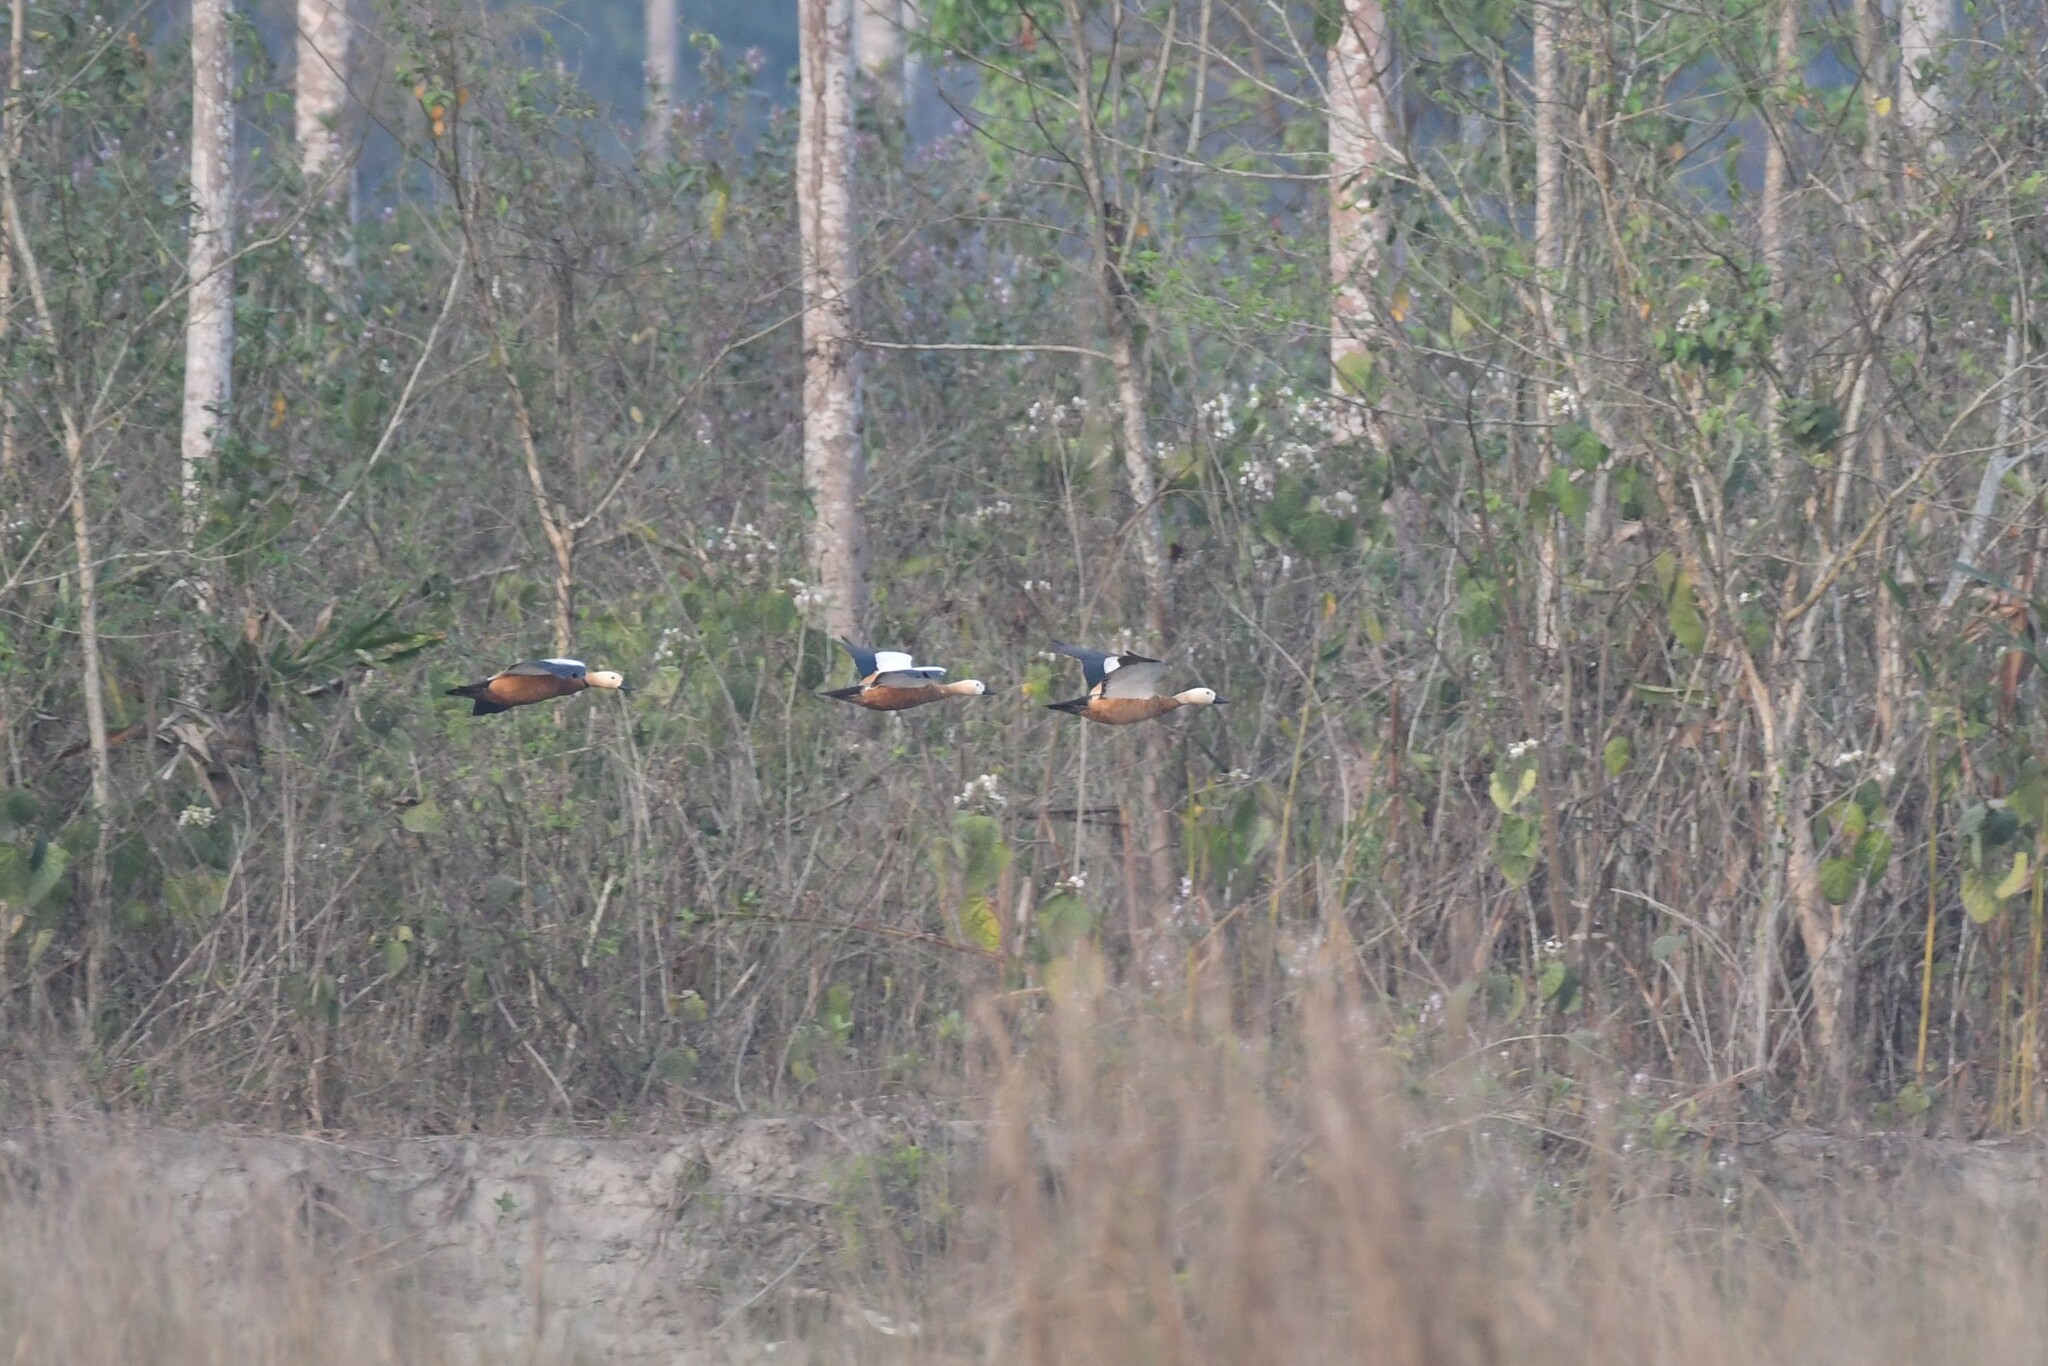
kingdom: Animalia
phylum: Chordata
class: Aves
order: Anseriformes
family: Anatidae
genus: Tadorna
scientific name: Tadorna ferruginea
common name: Ruddy shelduck
